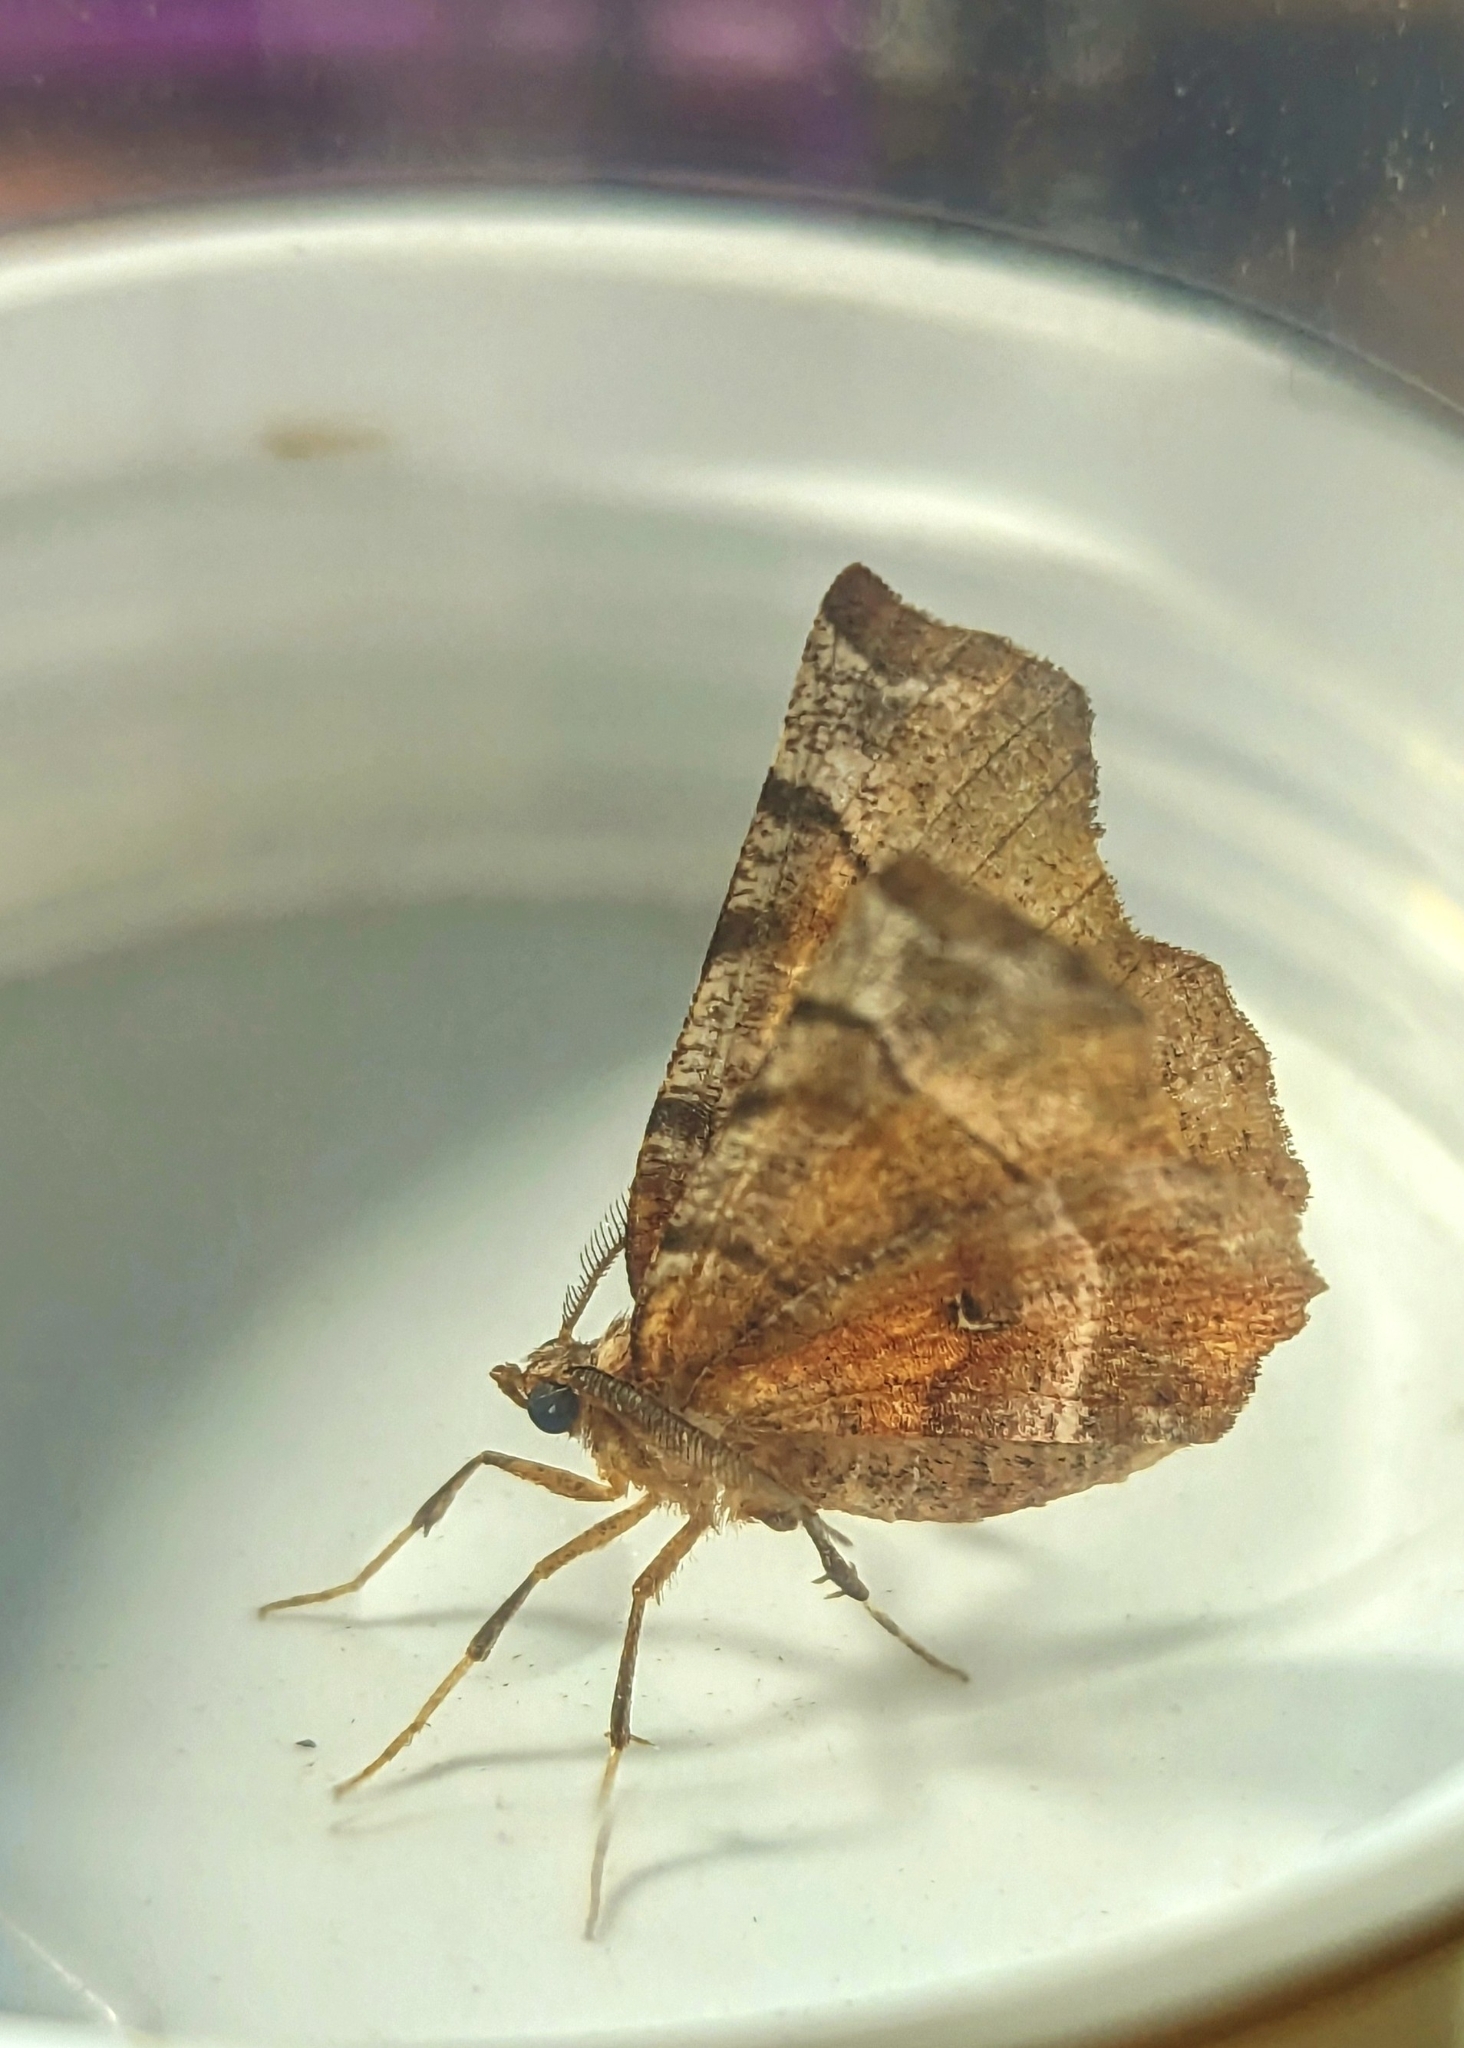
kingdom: Animalia
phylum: Arthropoda
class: Insecta
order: Lepidoptera
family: Geometridae
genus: Selenia
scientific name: Selenia dentaria
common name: Early thorn
